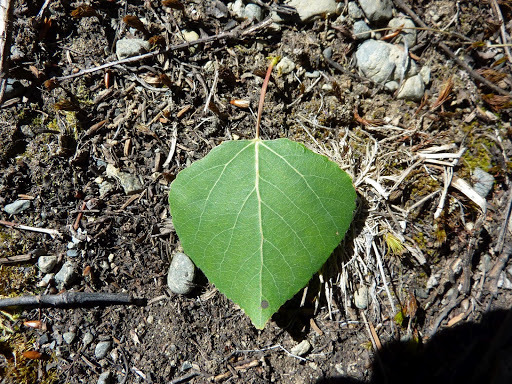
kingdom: Plantae
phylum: Tracheophyta
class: Magnoliopsida
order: Malpighiales
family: Salicaceae
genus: Populus
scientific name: Populus tremuloides
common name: Quaking aspen
